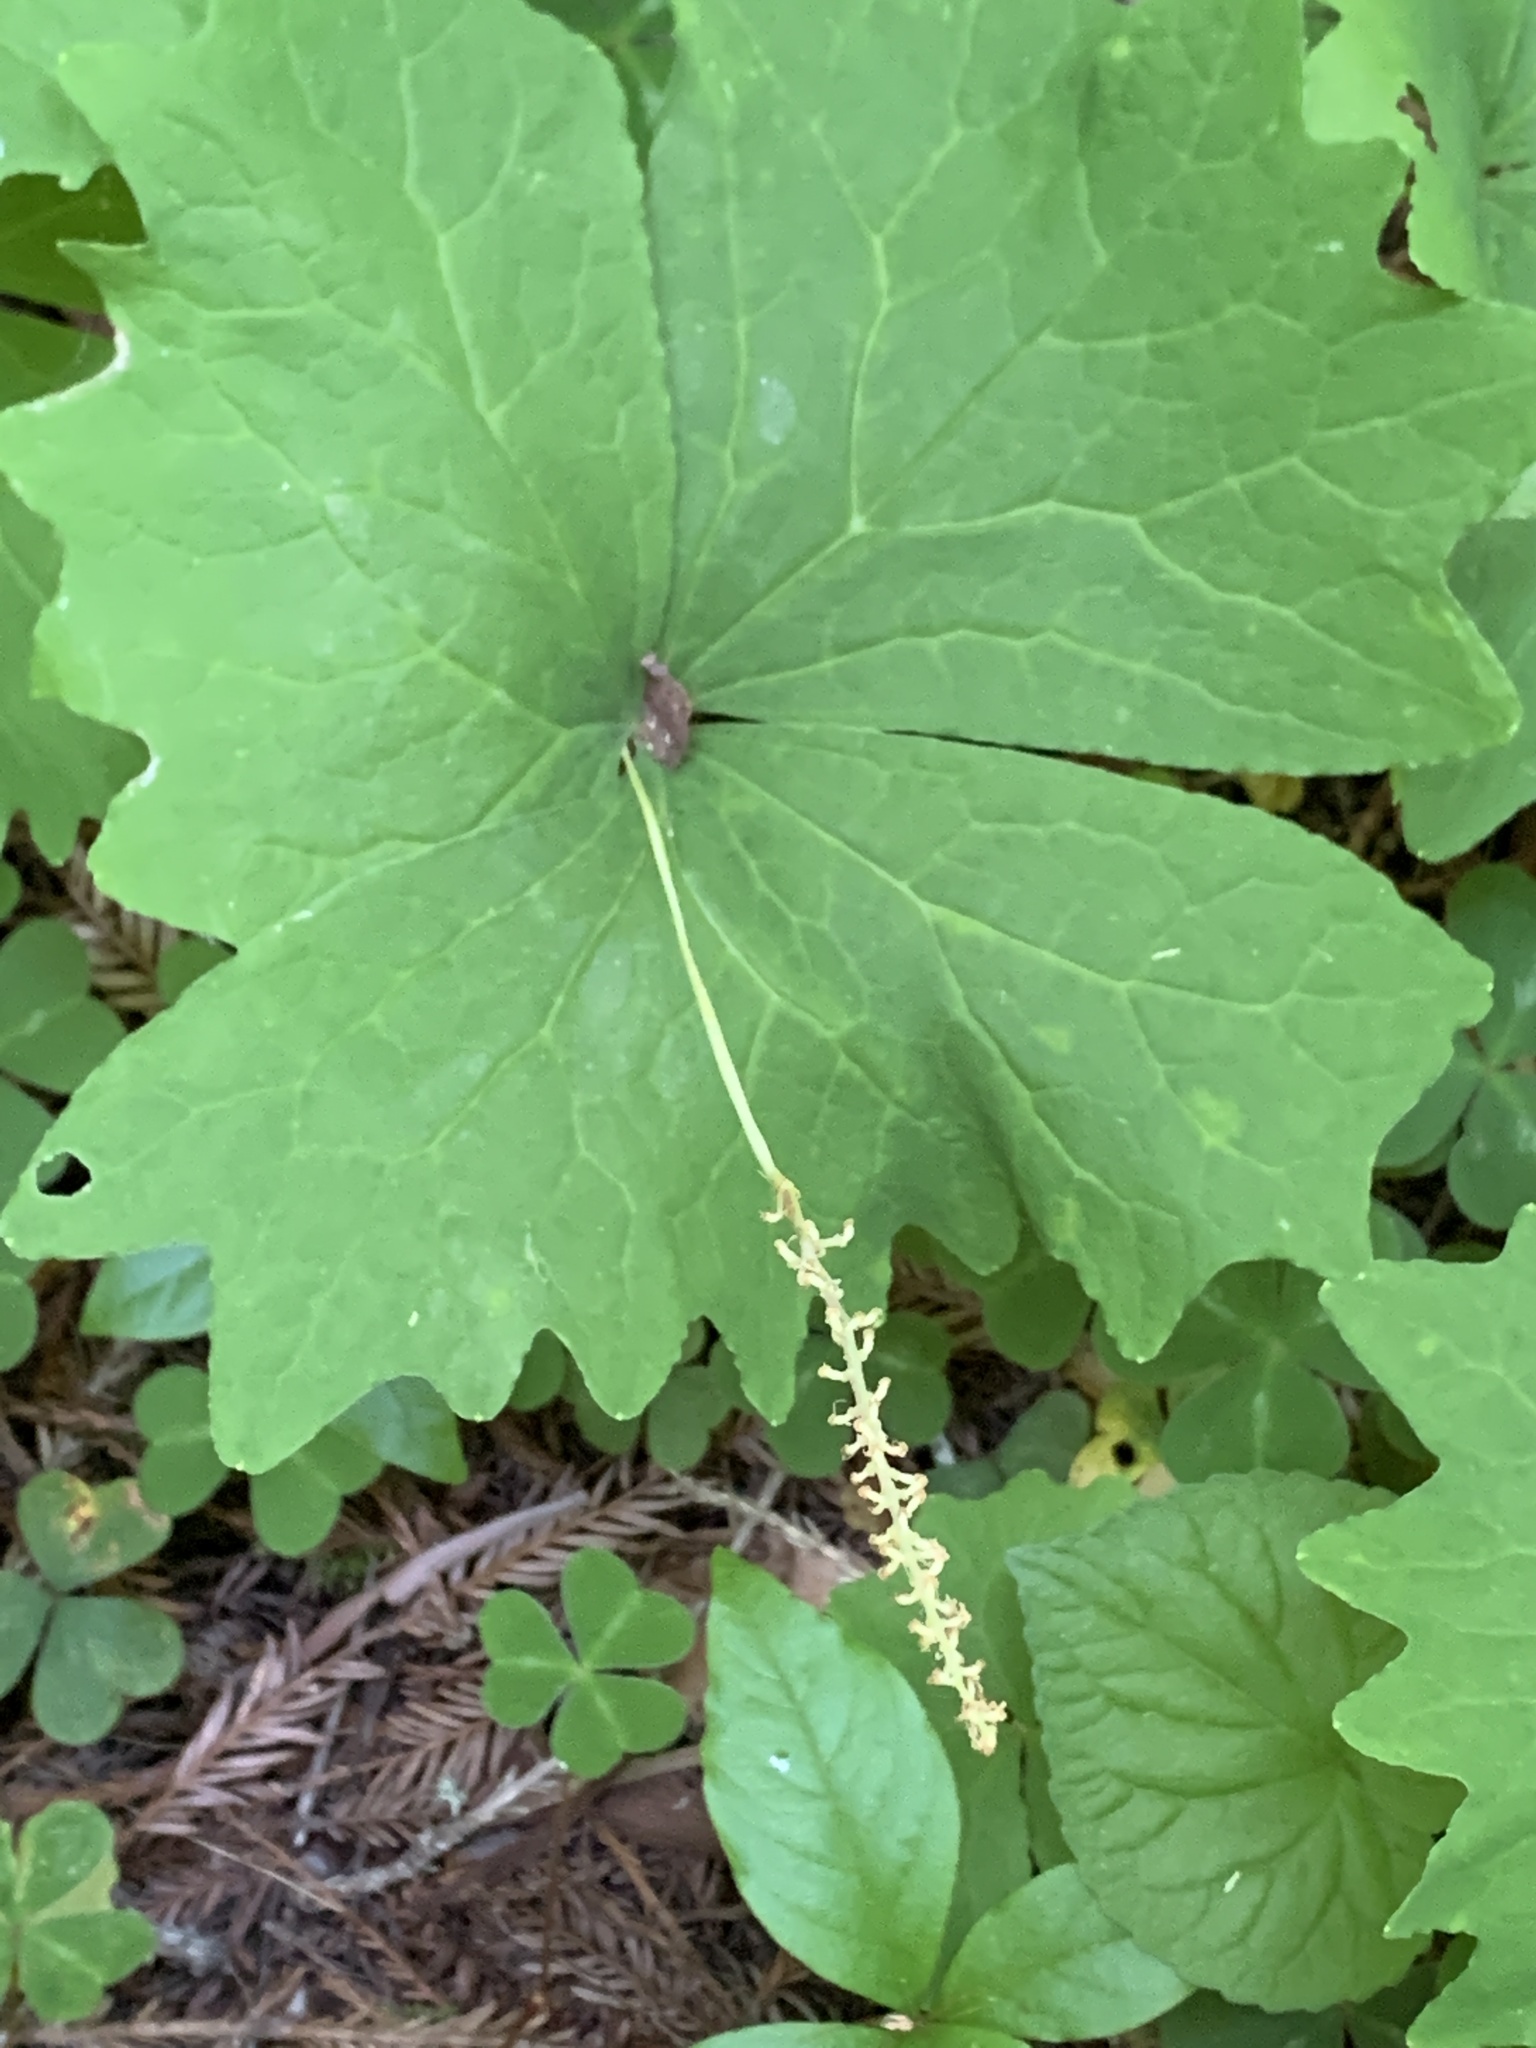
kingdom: Plantae
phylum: Tracheophyta
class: Magnoliopsida
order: Ranunculales
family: Berberidaceae
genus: Achlys
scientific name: Achlys triphylla
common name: Vanilla-leaf
